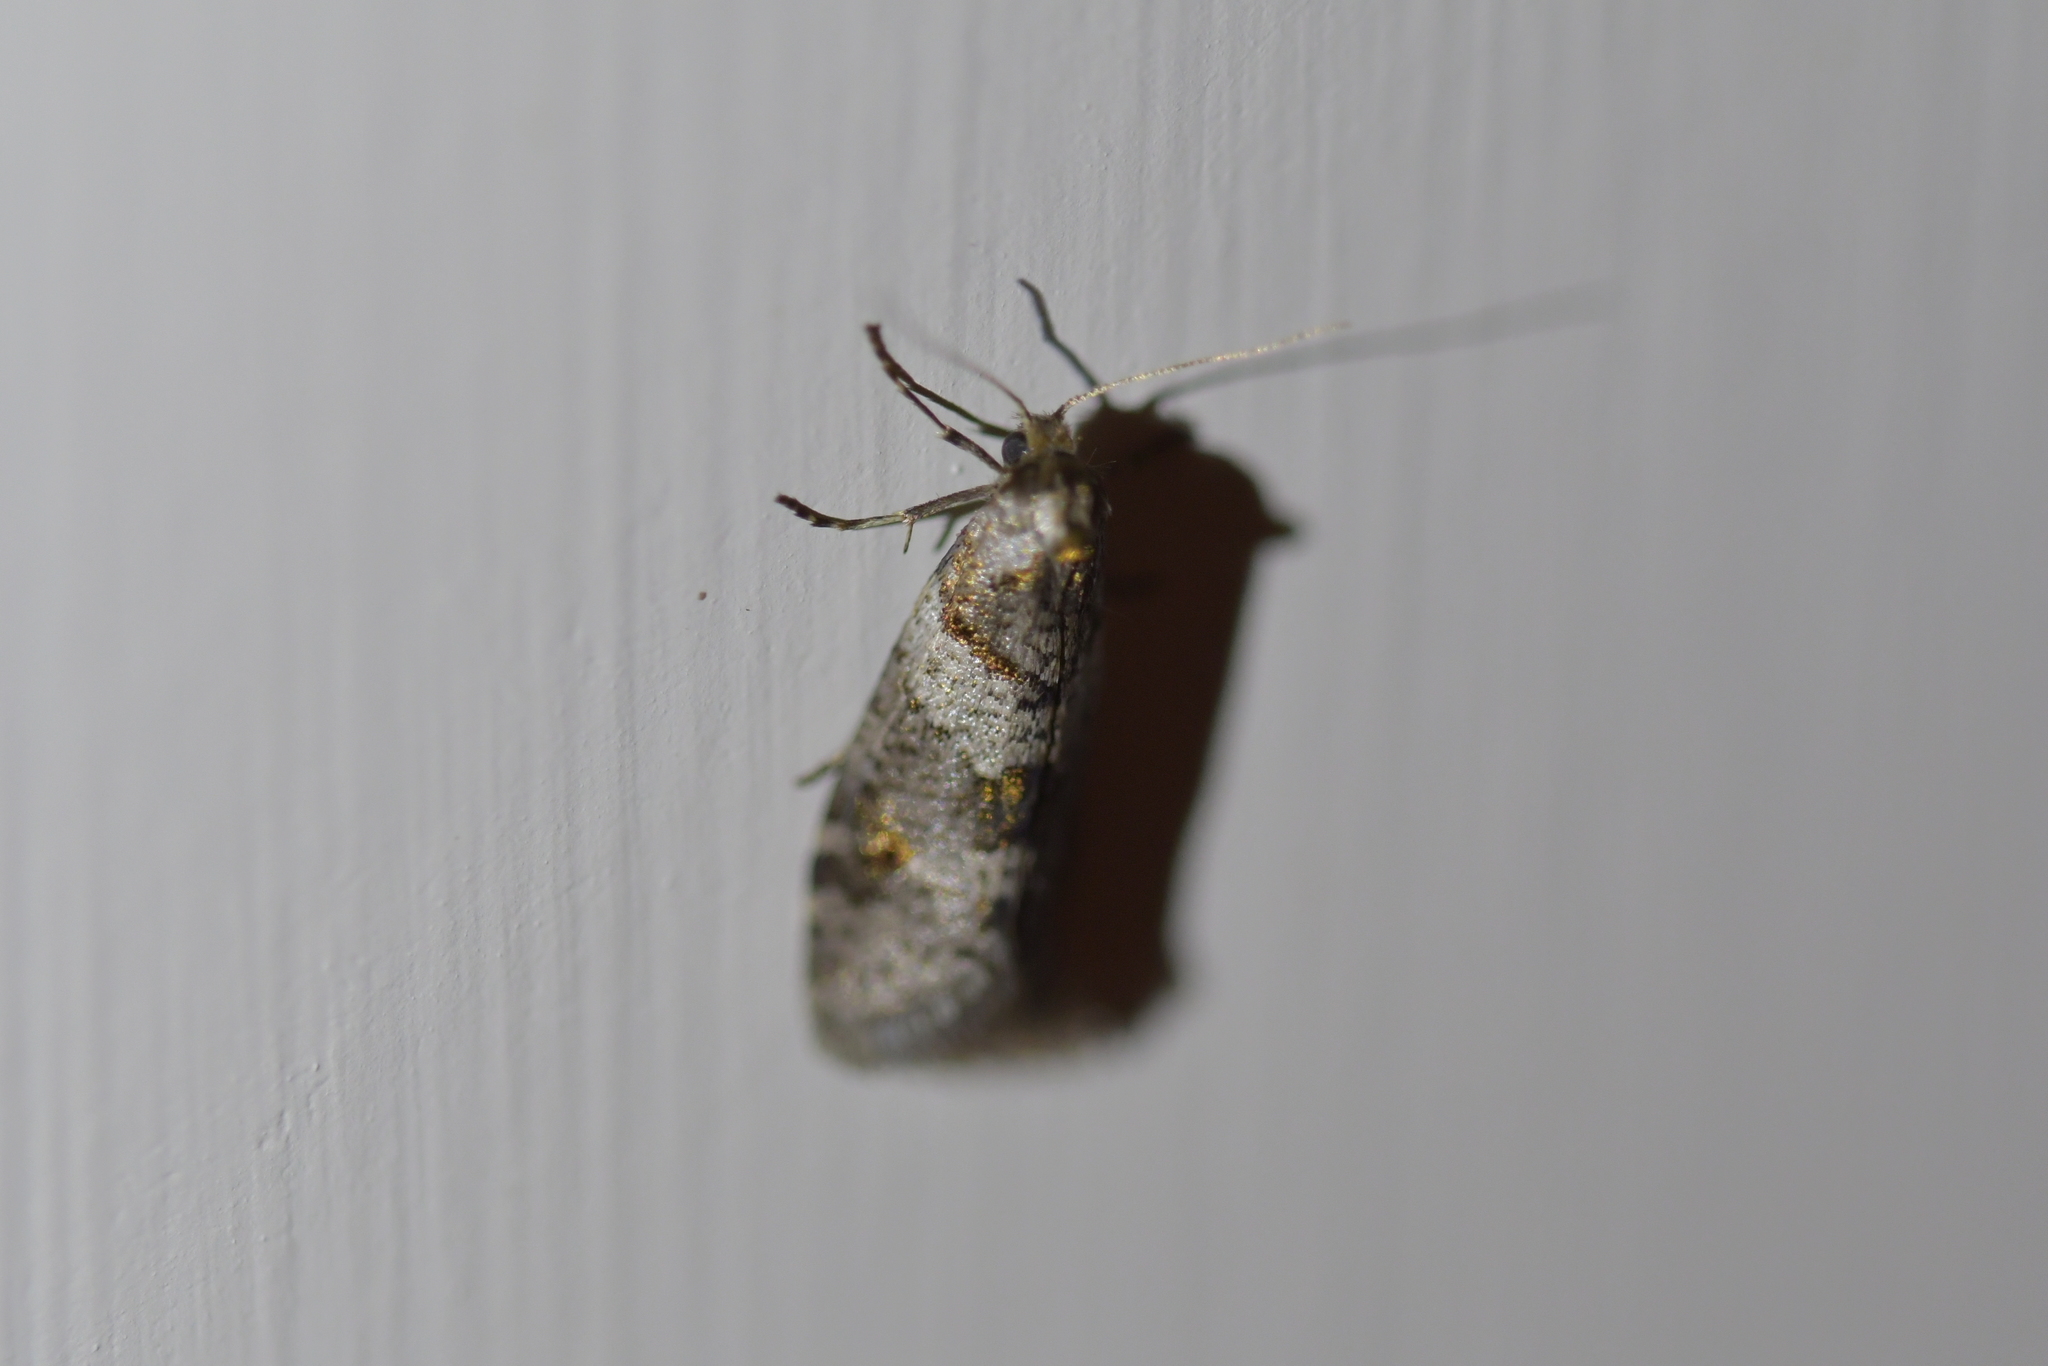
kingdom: Animalia
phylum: Arthropoda
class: Insecta
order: Lepidoptera
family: Psychidae
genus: Lepidoscia
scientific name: Lepidoscia heliochares
